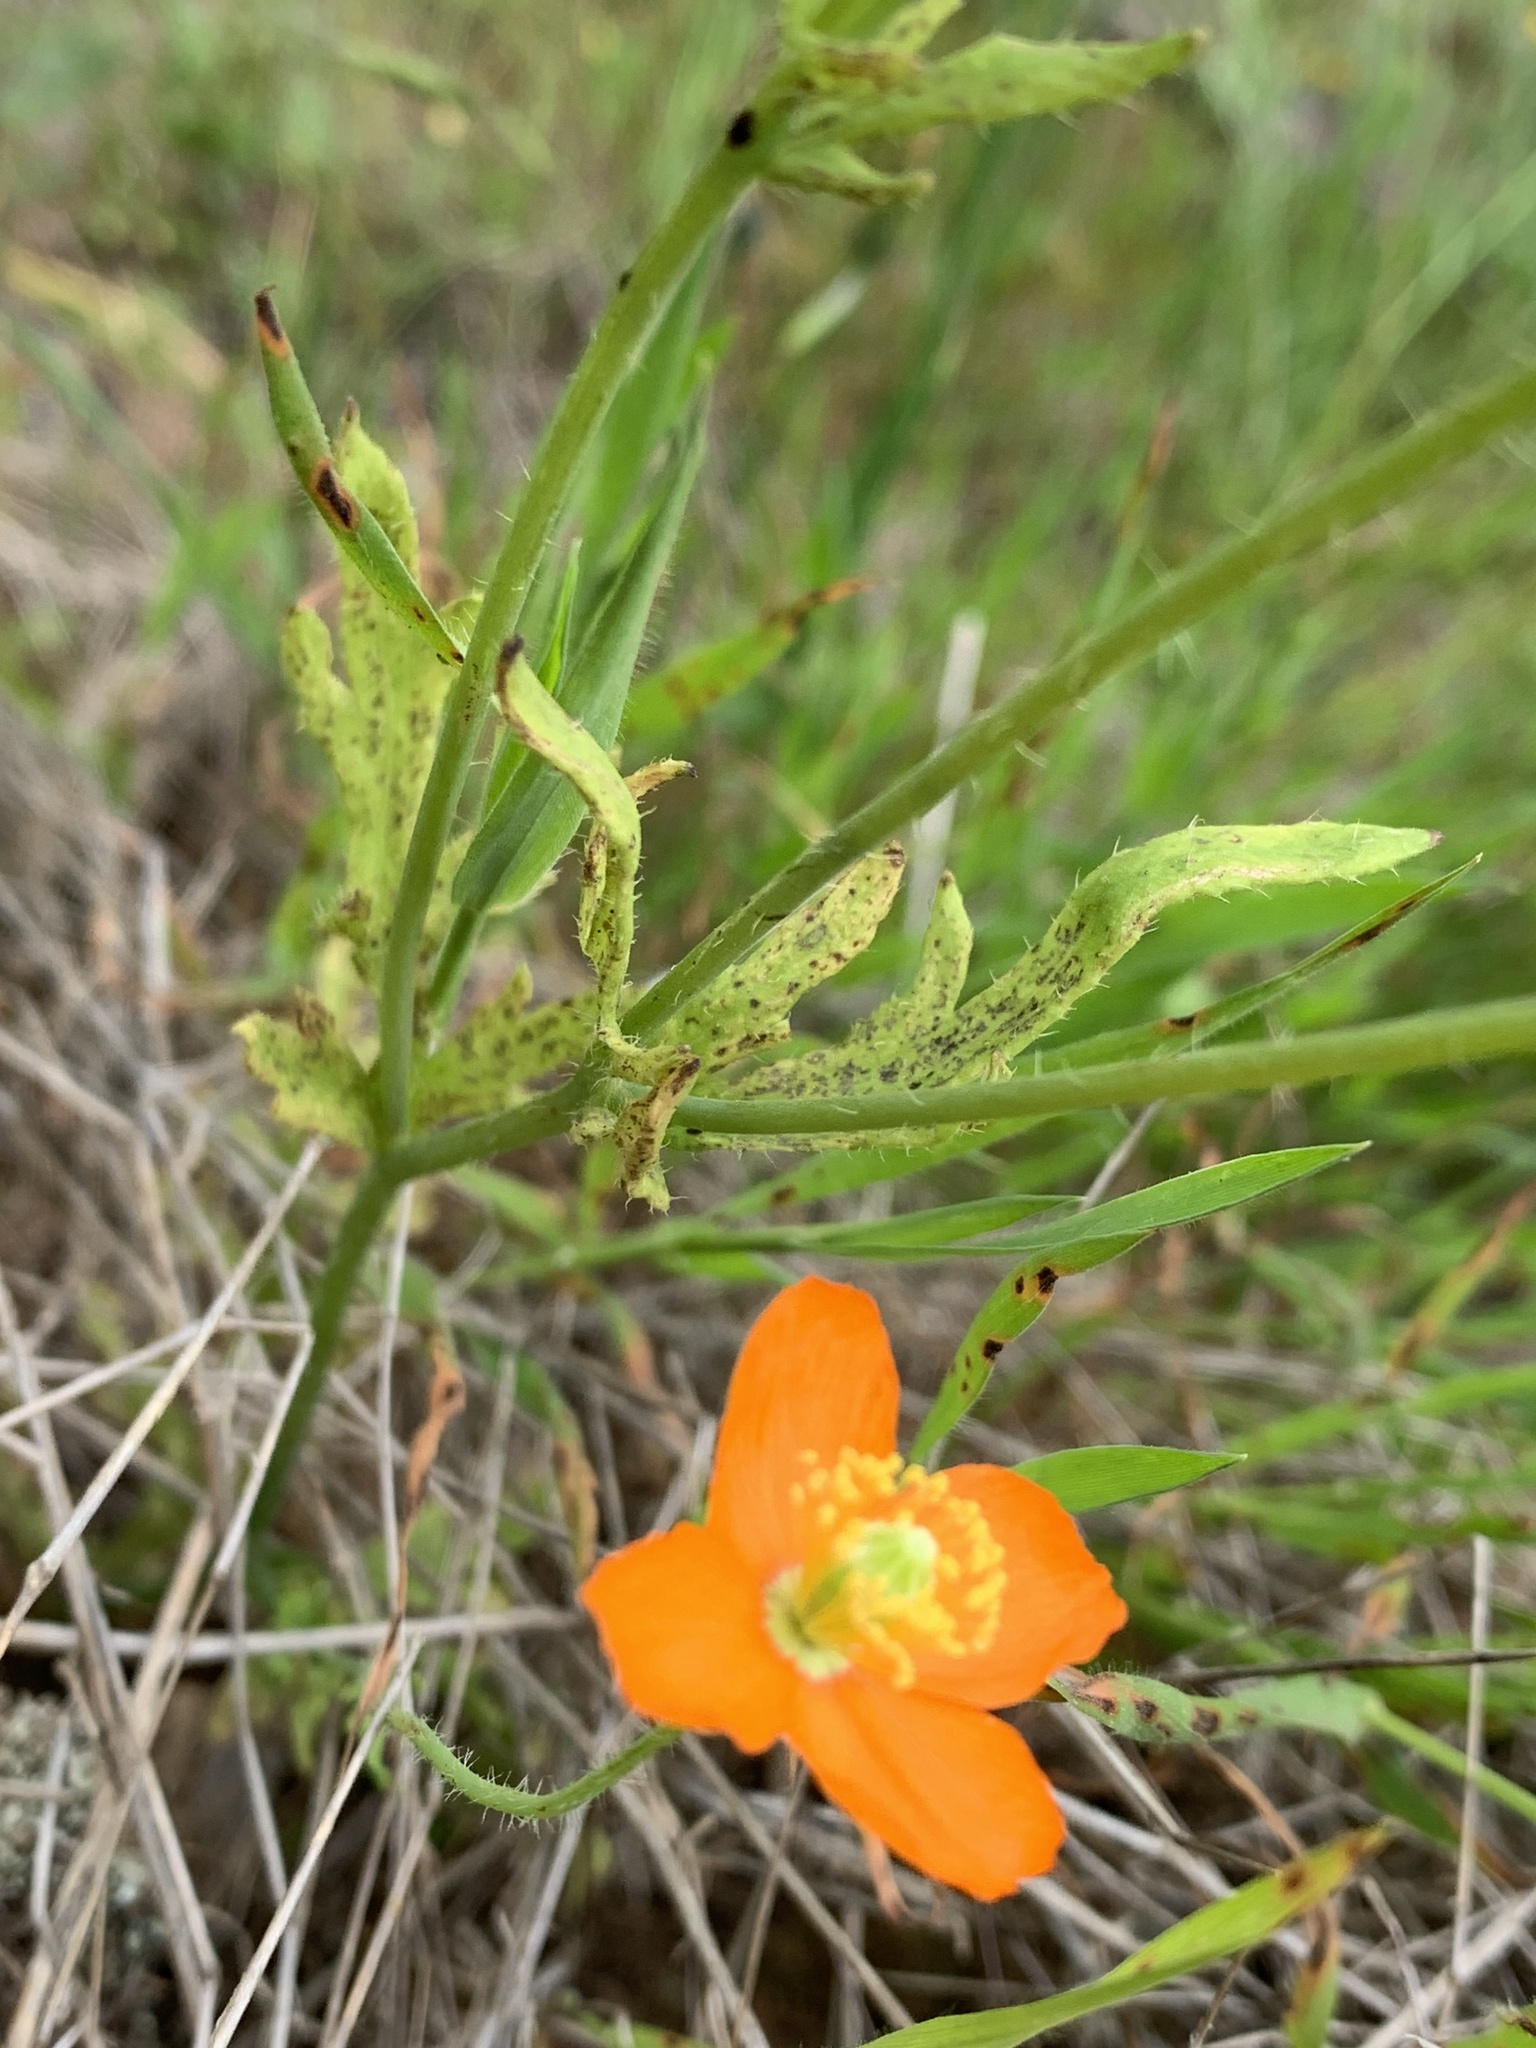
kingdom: Plantae
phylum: Tracheophyta
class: Magnoliopsida
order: Ranunculales
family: Papaveraceae
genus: Papaver
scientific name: Papaver californicum
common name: Fire poppy
